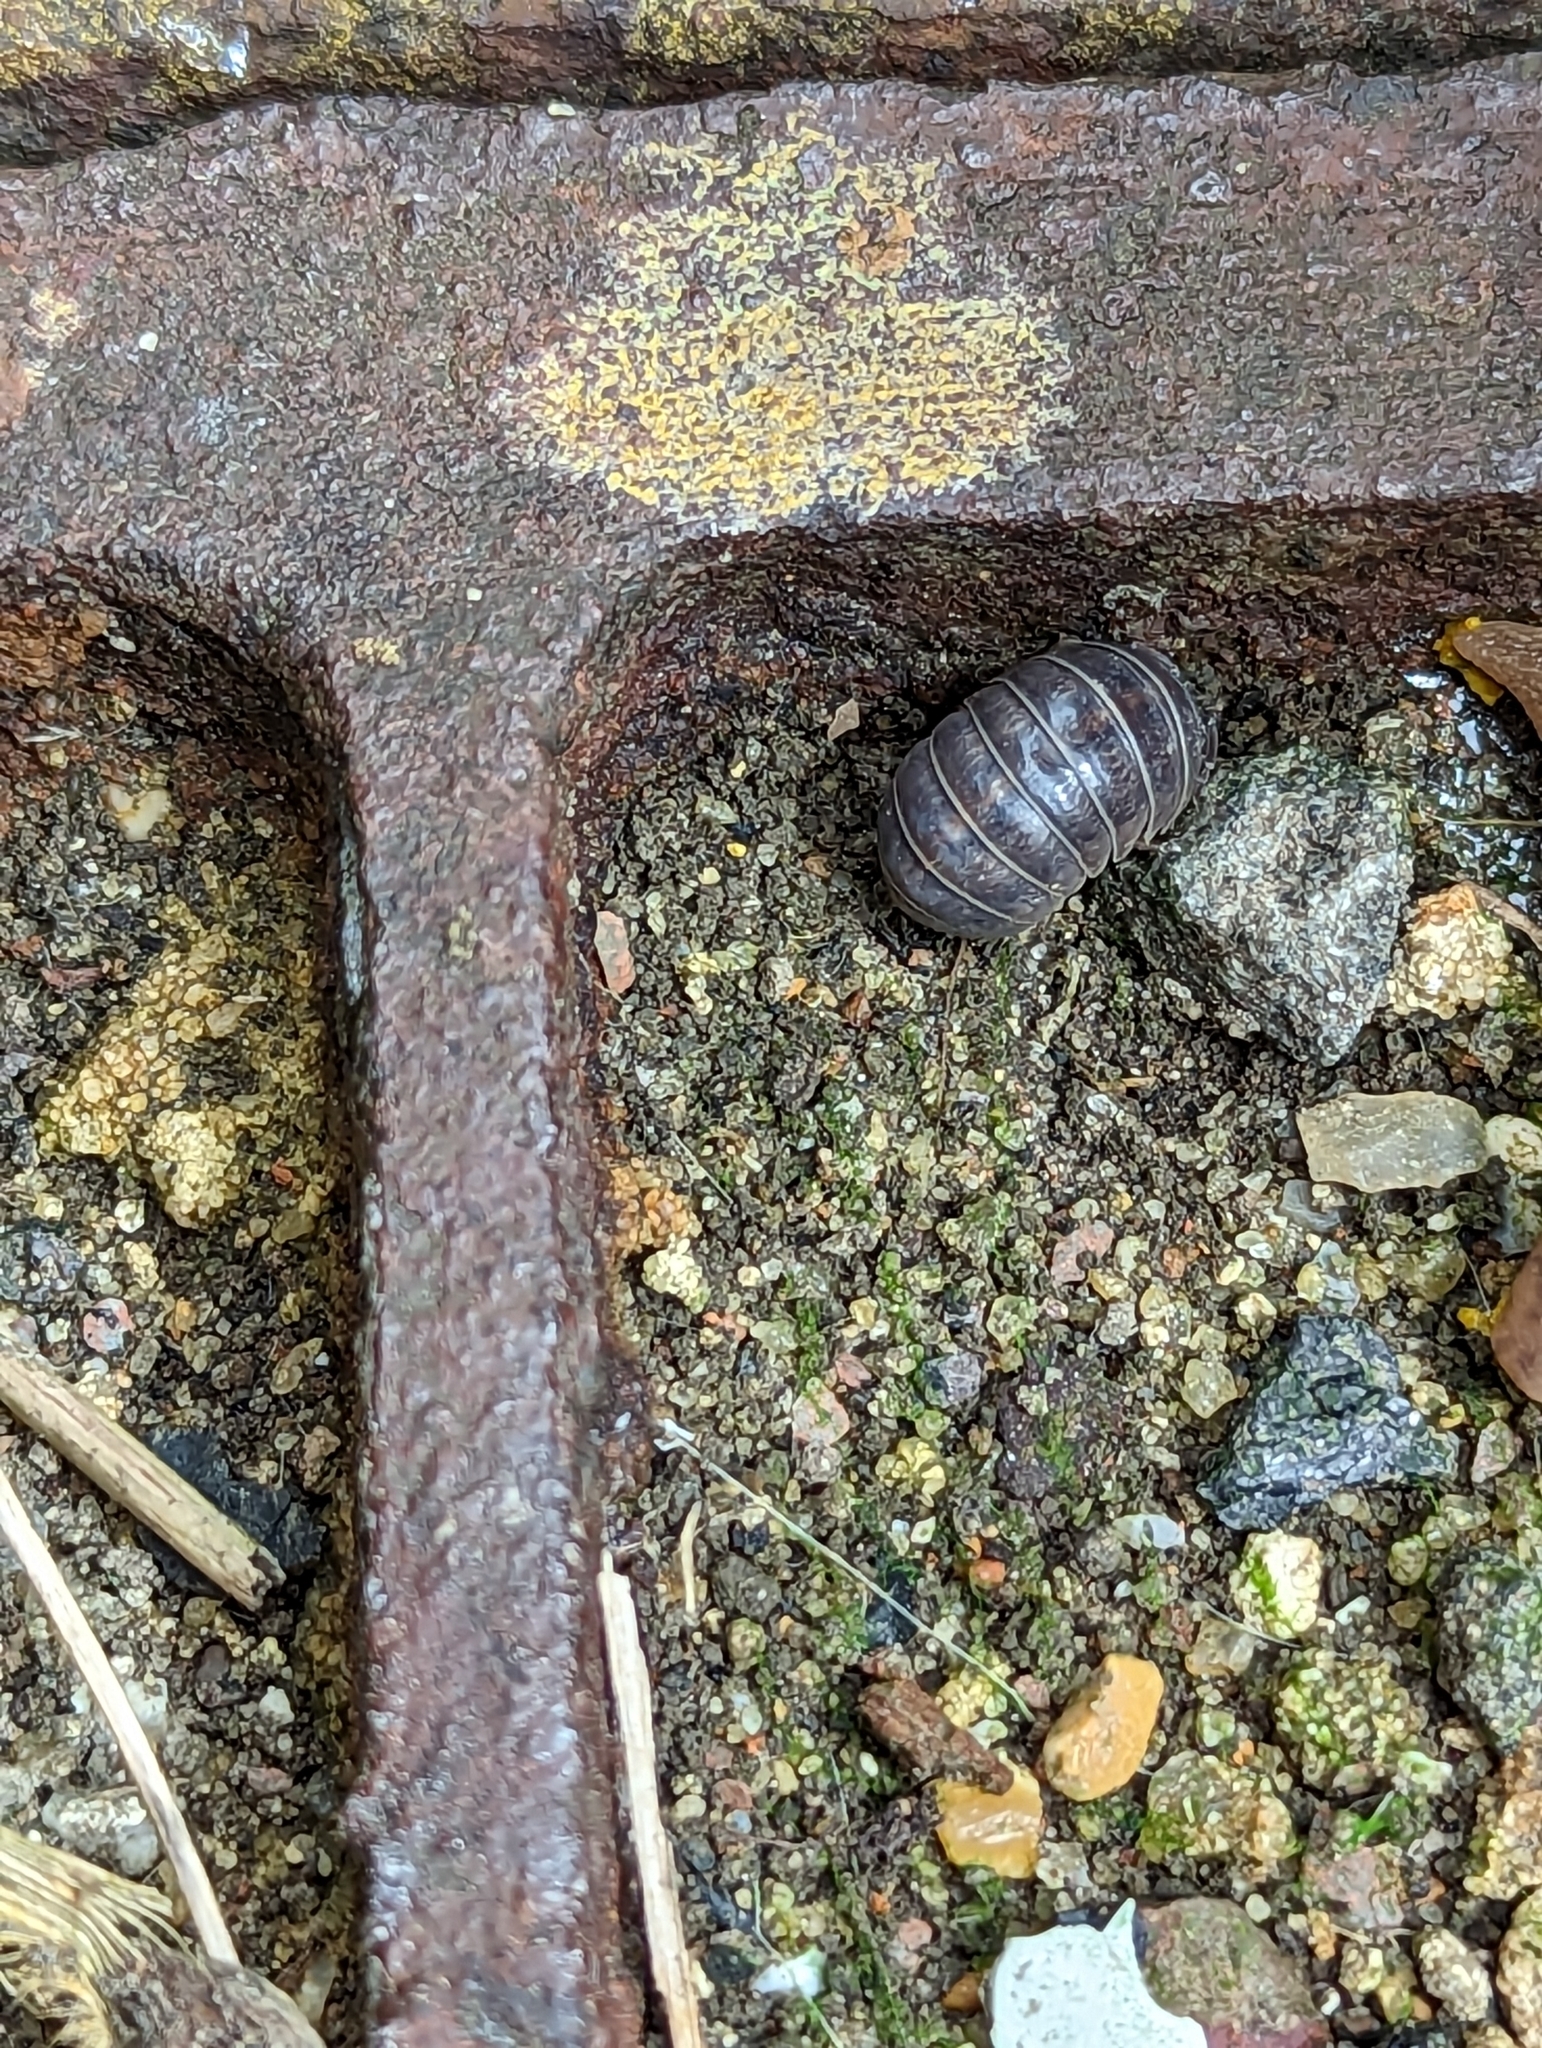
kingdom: Animalia
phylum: Arthropoda
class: Malacostraca
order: Isopoda
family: Armadillidiidae
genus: Armadillidium
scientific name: Armadillidium vulgare
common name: Common pill woodlouse
